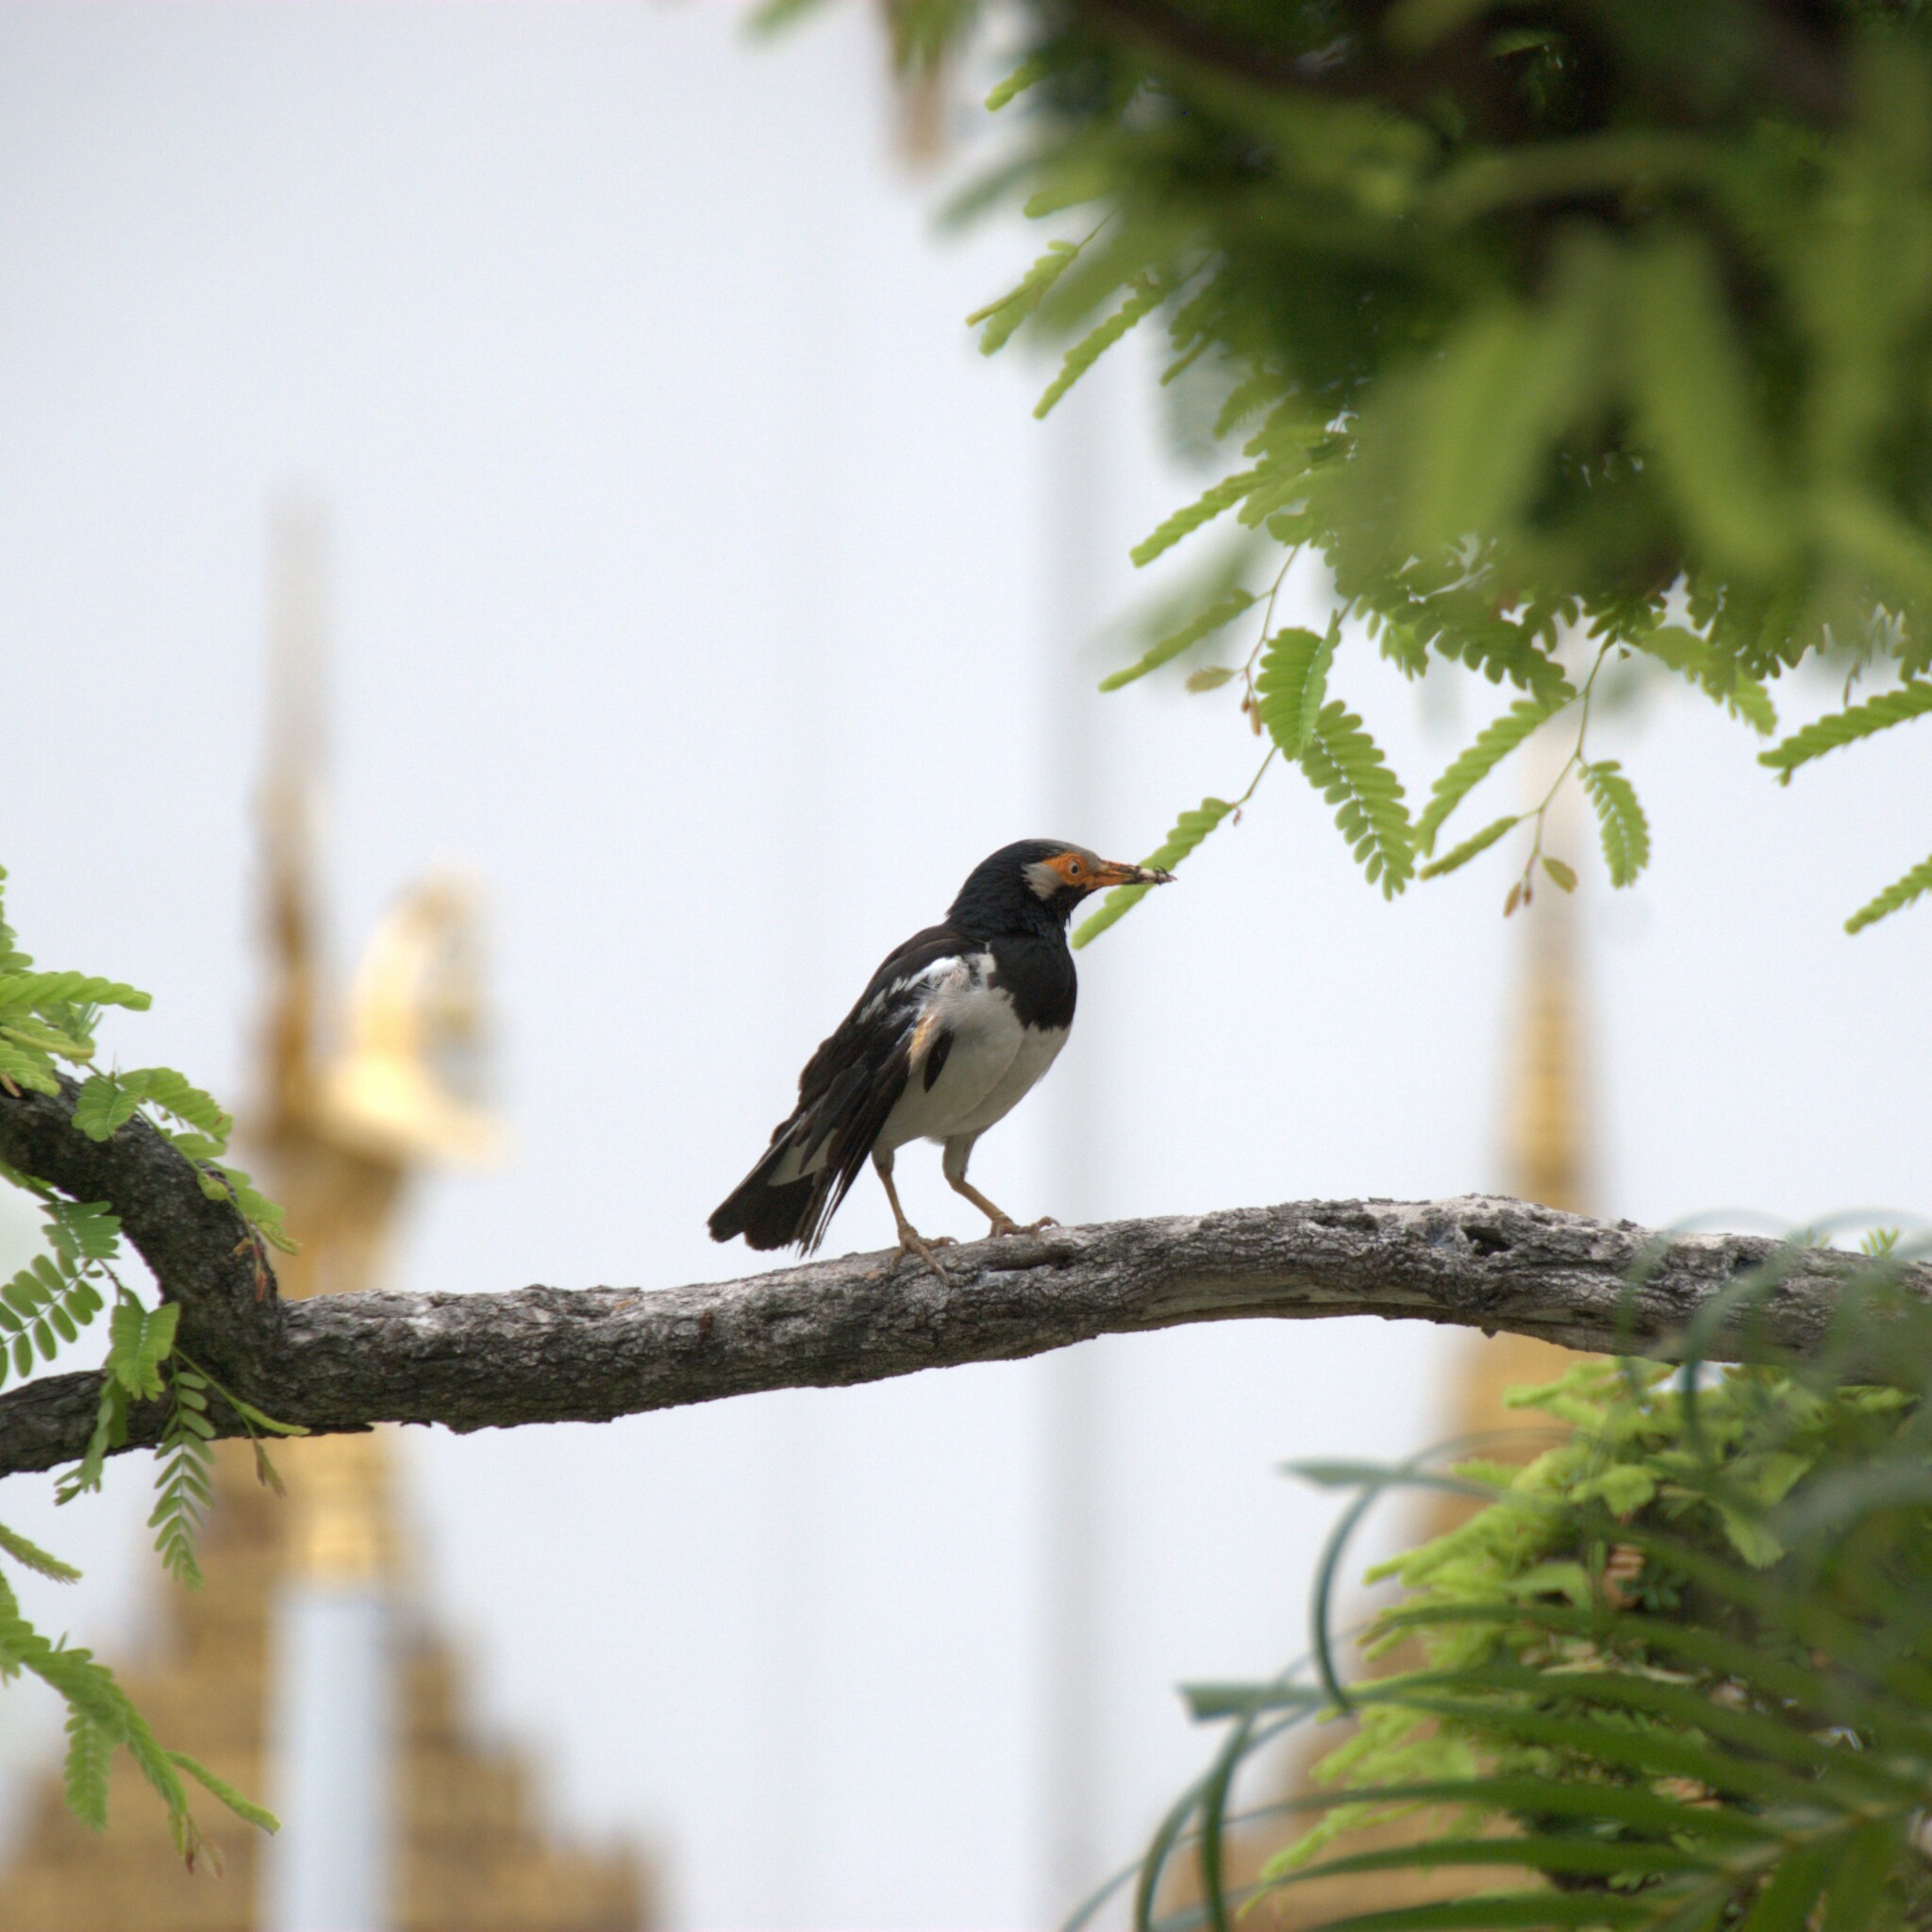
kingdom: Animalia
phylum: Chordata
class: Aves
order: Passeriformes
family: Sturnidae
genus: Gracupica
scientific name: Gracupica contra
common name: Pied myna
